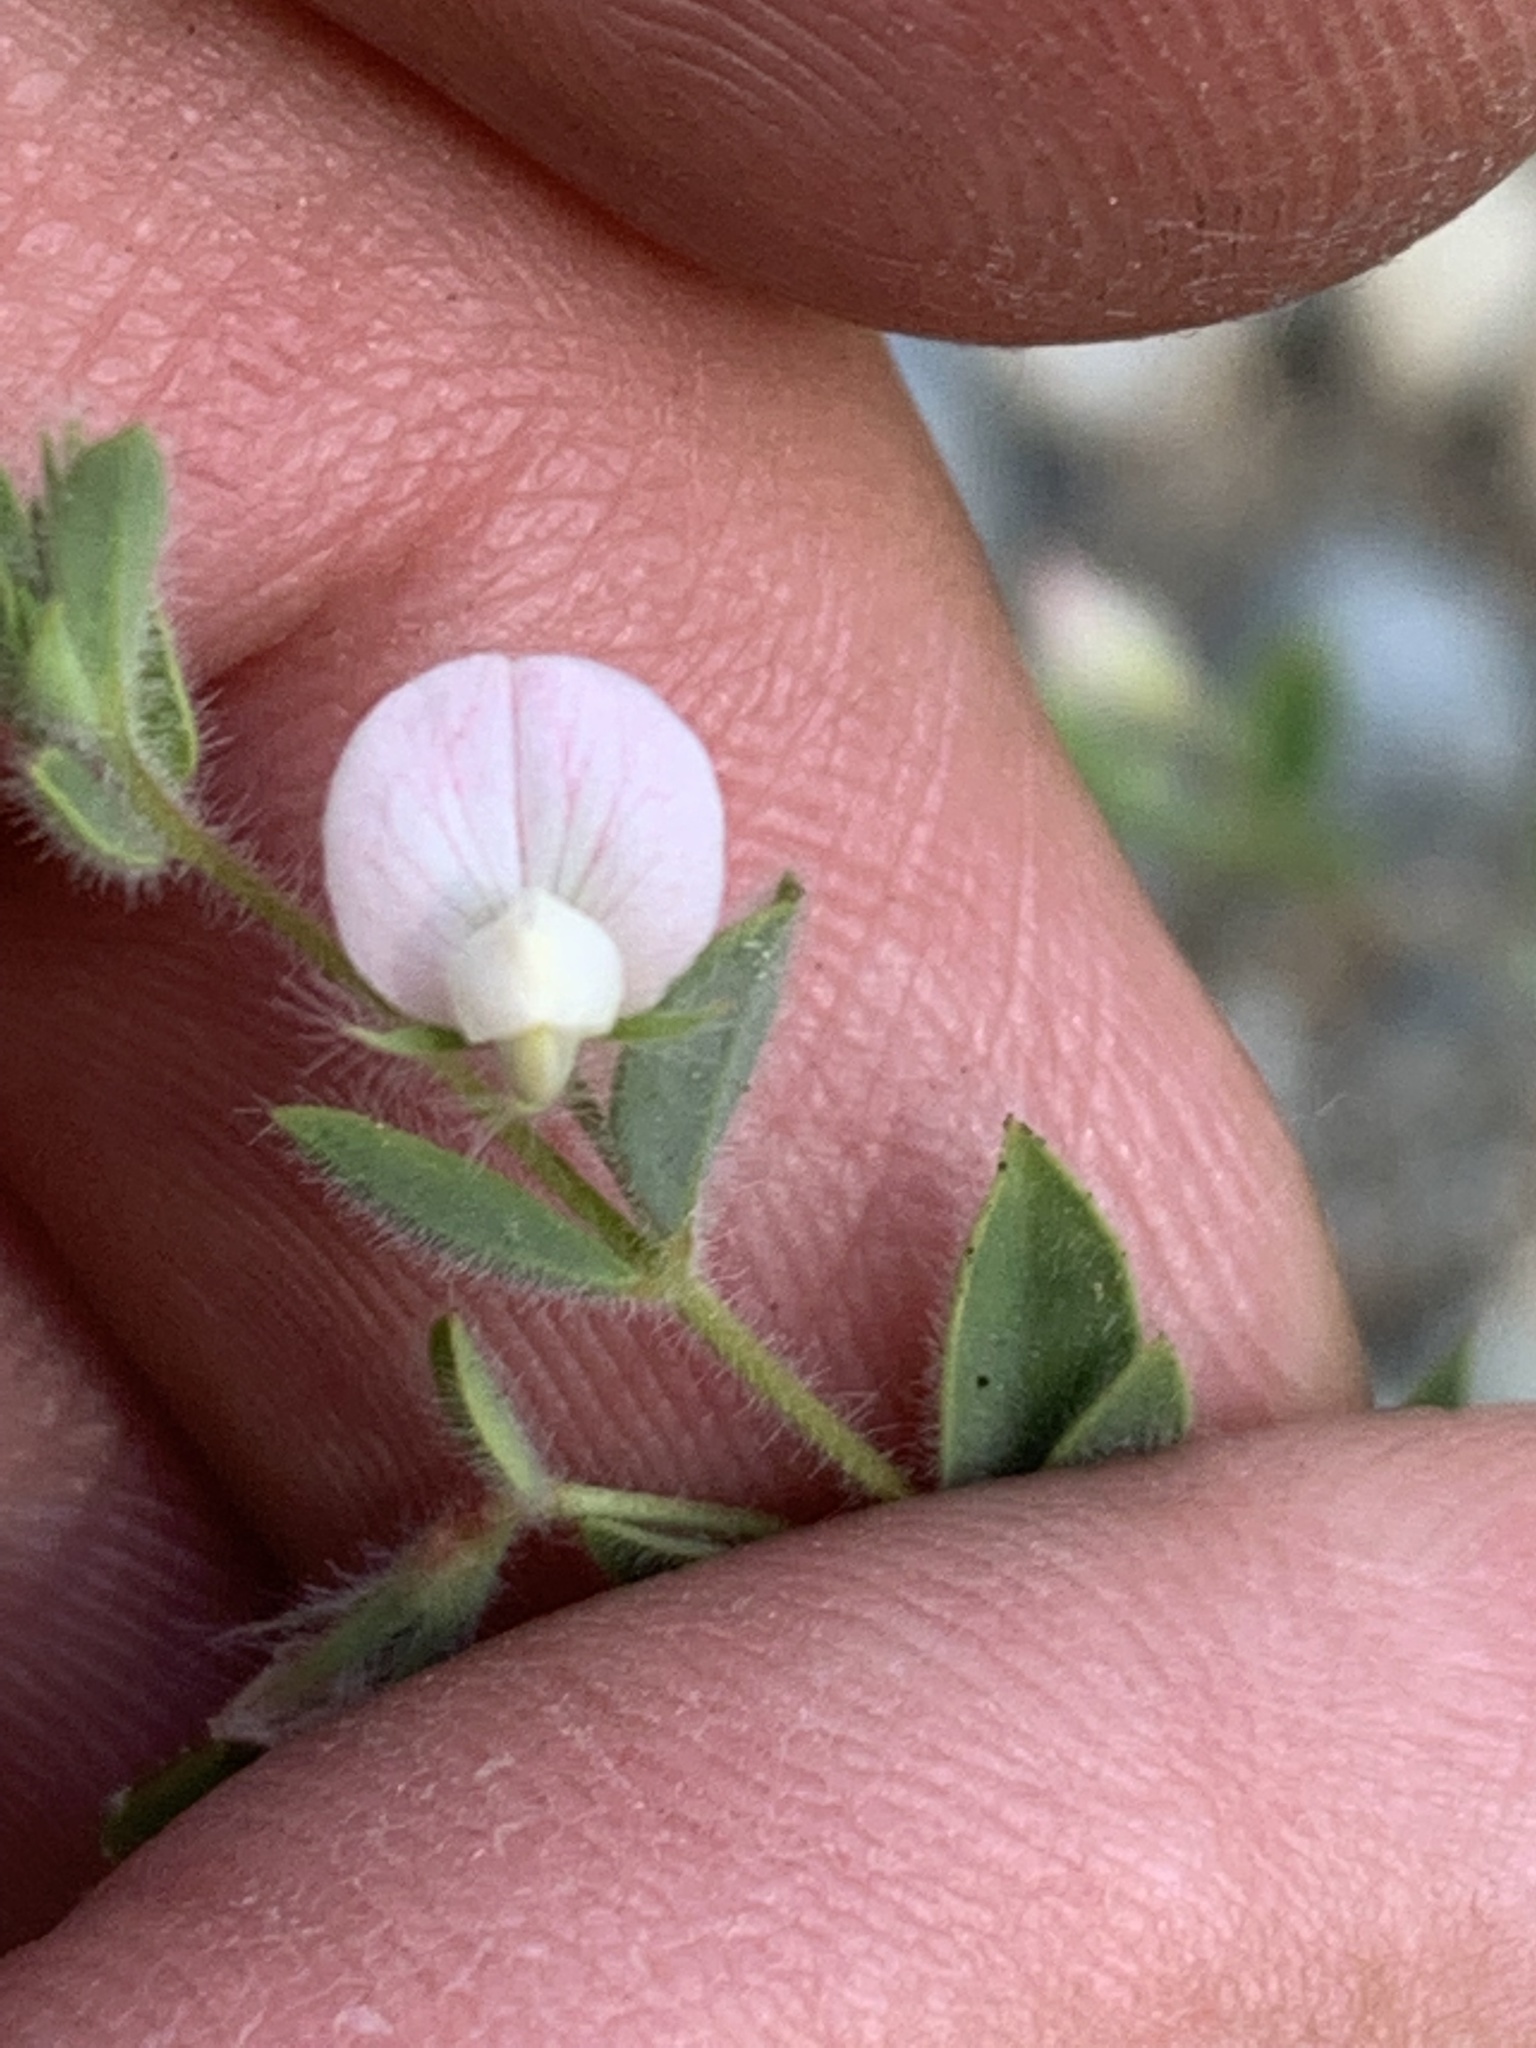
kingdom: Plantae
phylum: Tracheophyta
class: Magnoliopsida
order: Fabales
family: Fabaceae
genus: Acmispon
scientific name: Acmispon americanus
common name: American bird's-foot trefoil
